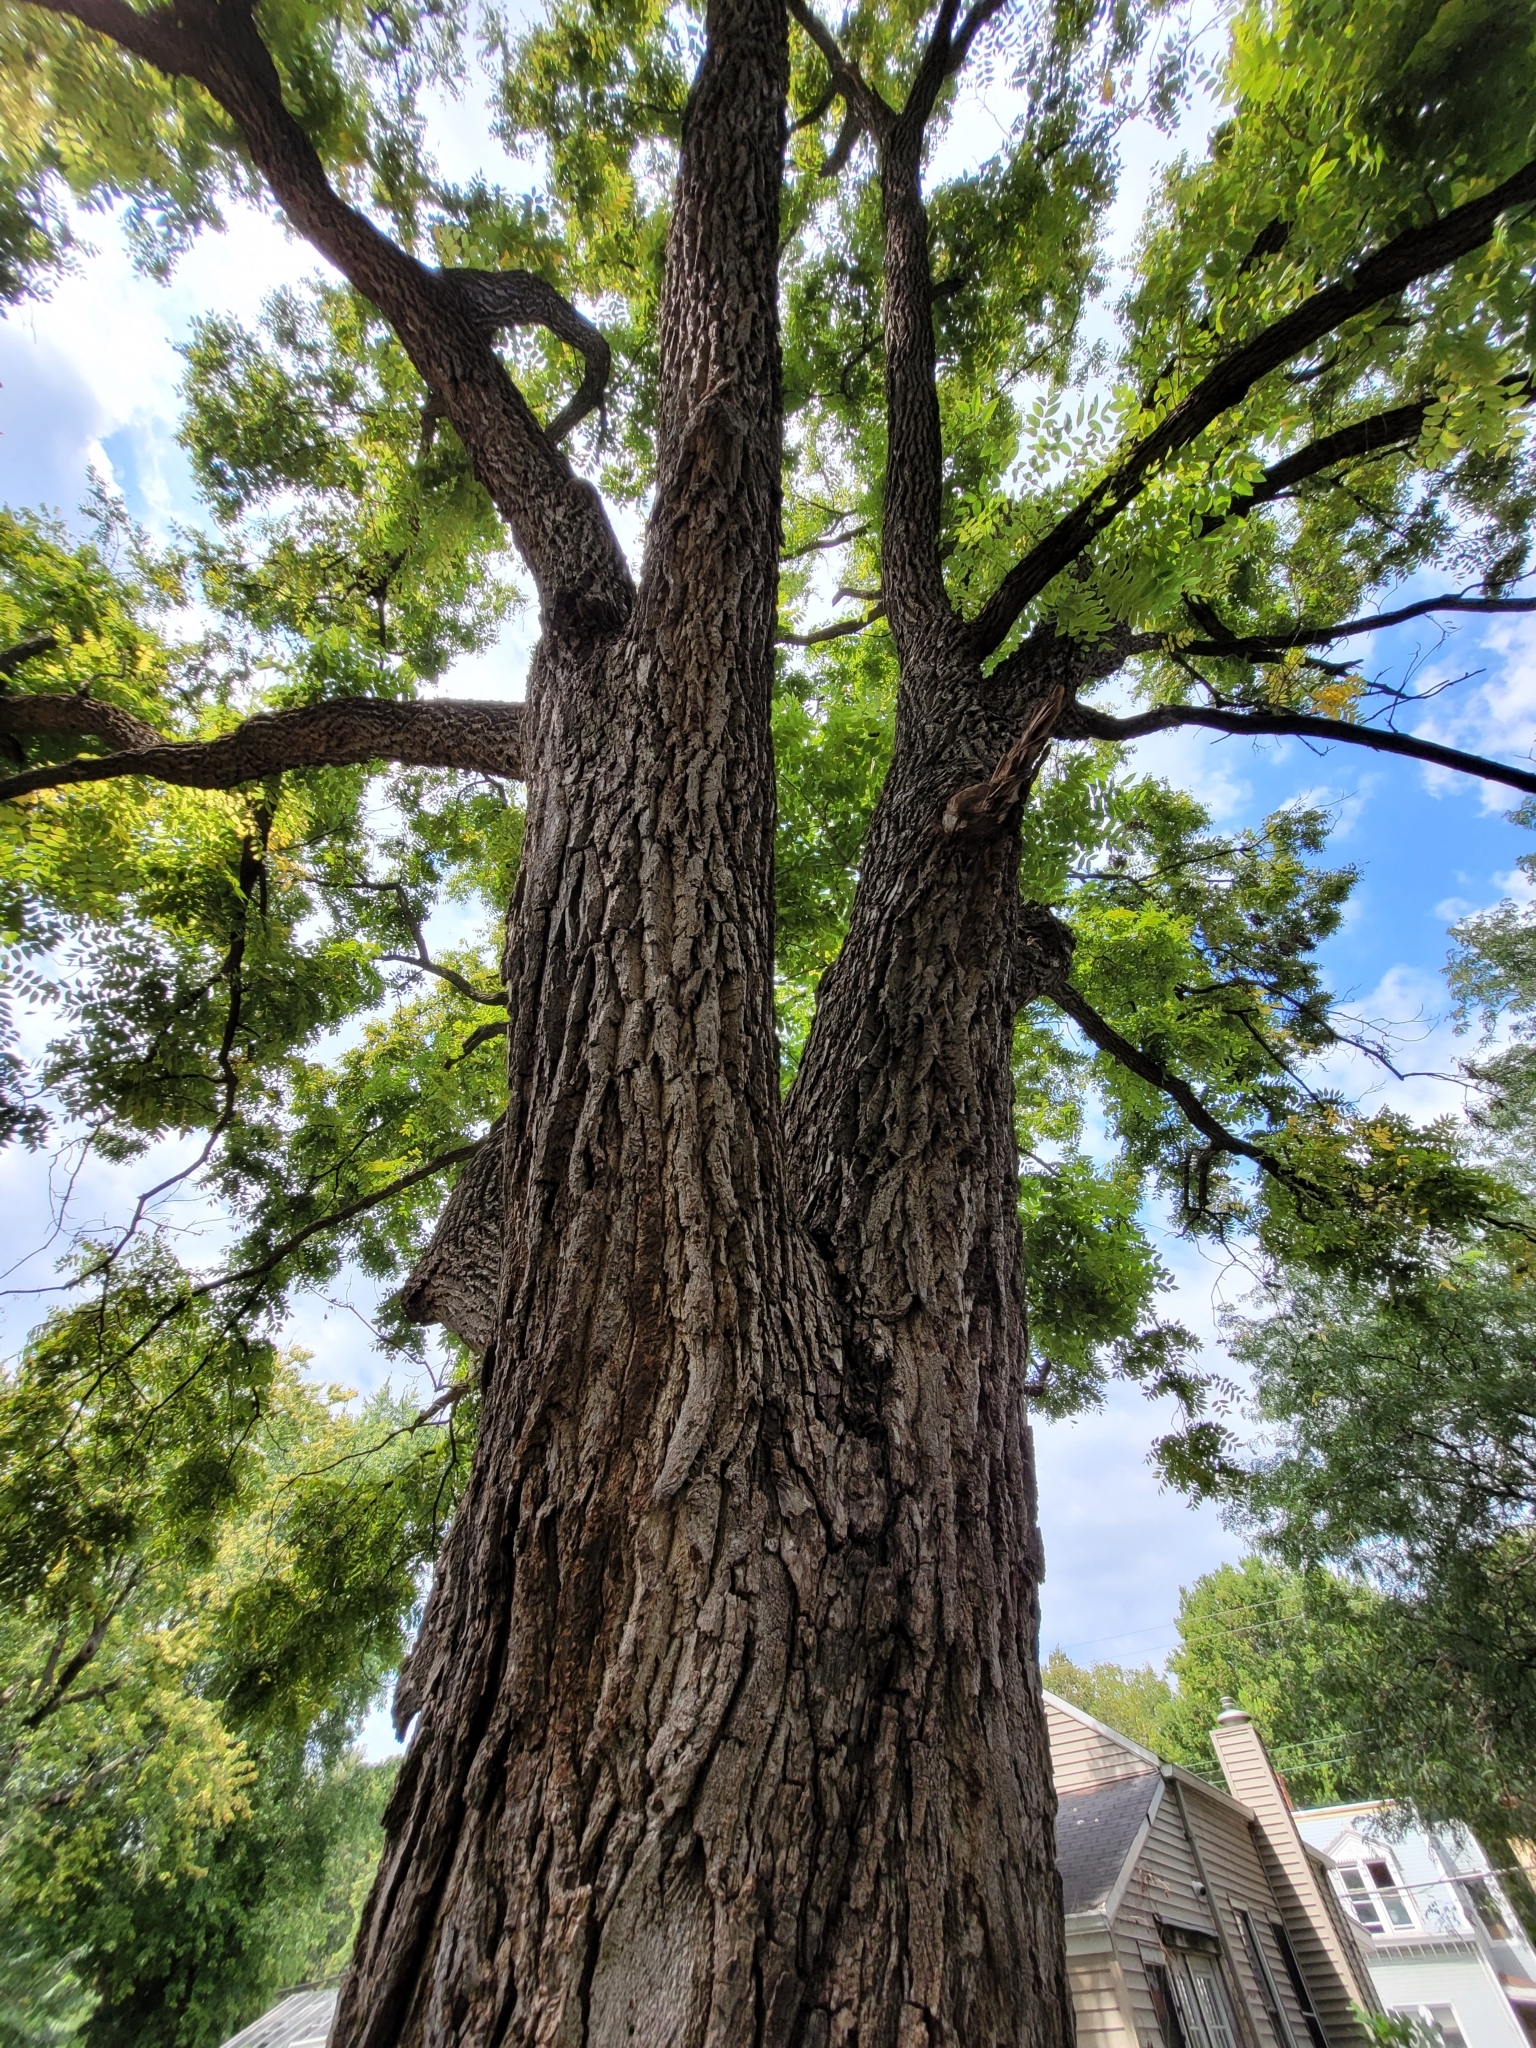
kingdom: Plantae
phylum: Tracheophyta
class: Magnoliopsida
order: Fagales
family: Juglandaceae
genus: Juglans
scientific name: Juglans nigra
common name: Black walnut
